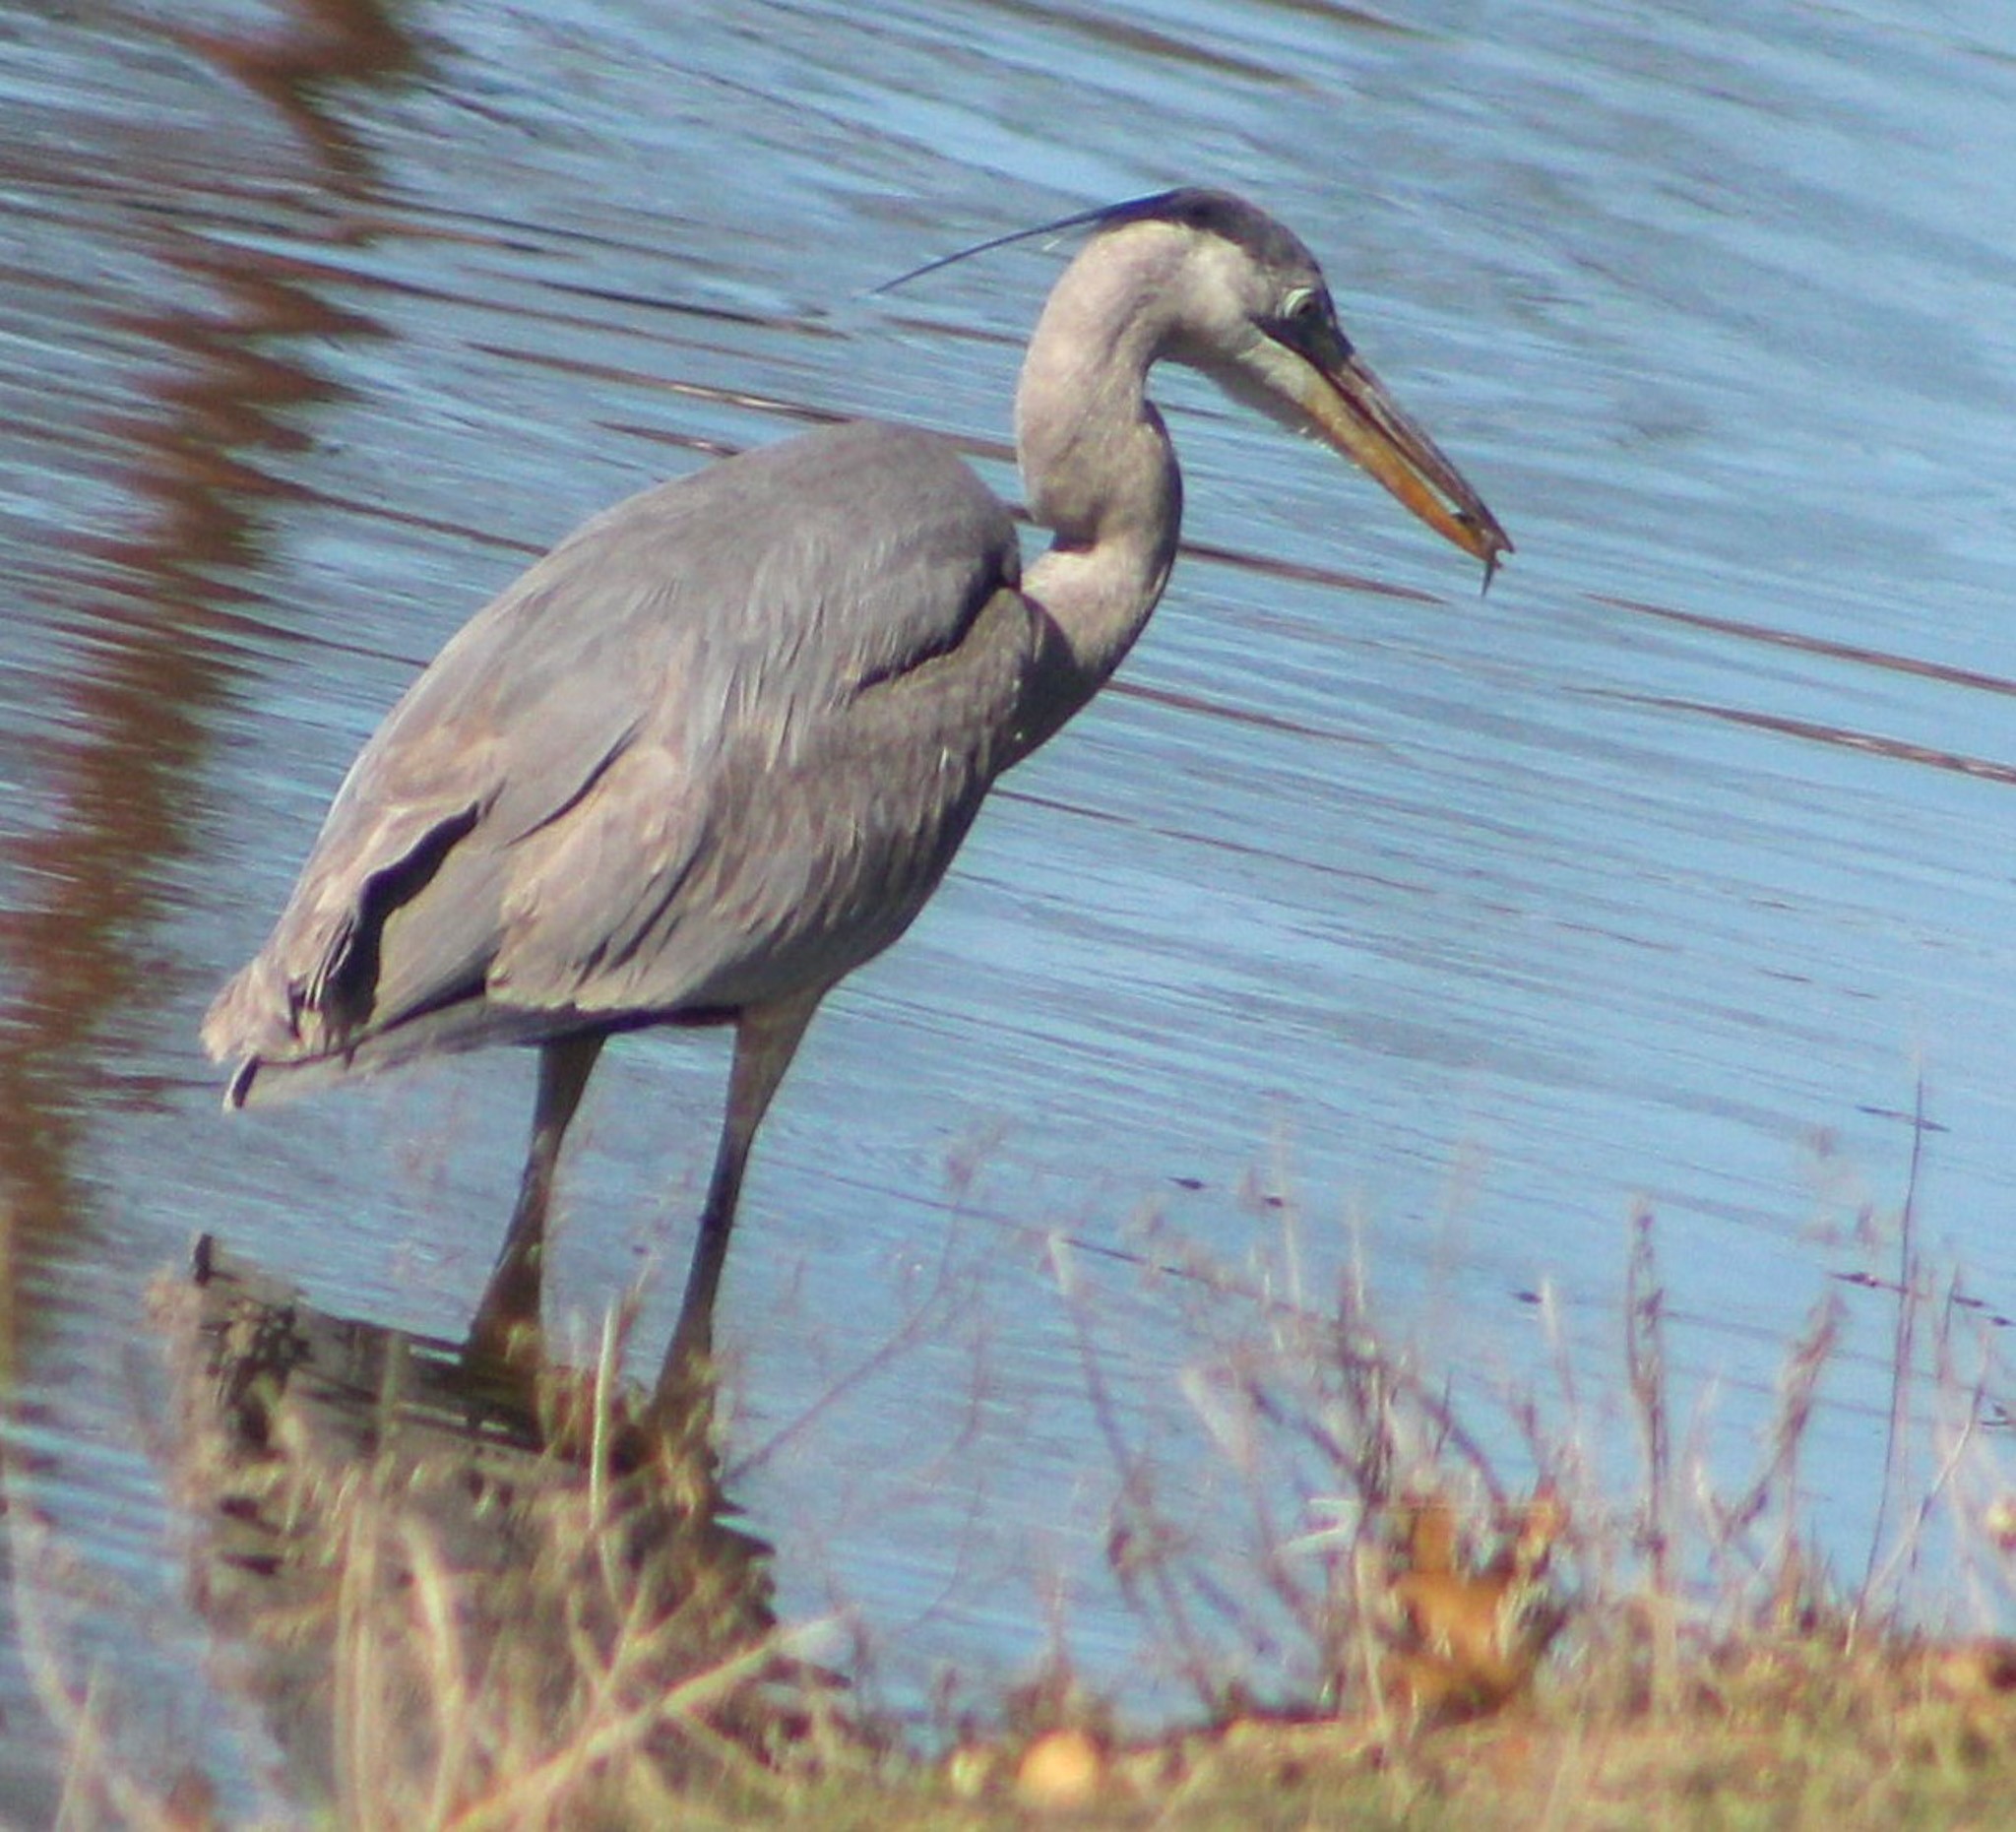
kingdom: Animalia
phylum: Chordata
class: Aves
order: Pelecaniformes
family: Ardeidae
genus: Ardea
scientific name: Ardea herodias
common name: Great blue heron
